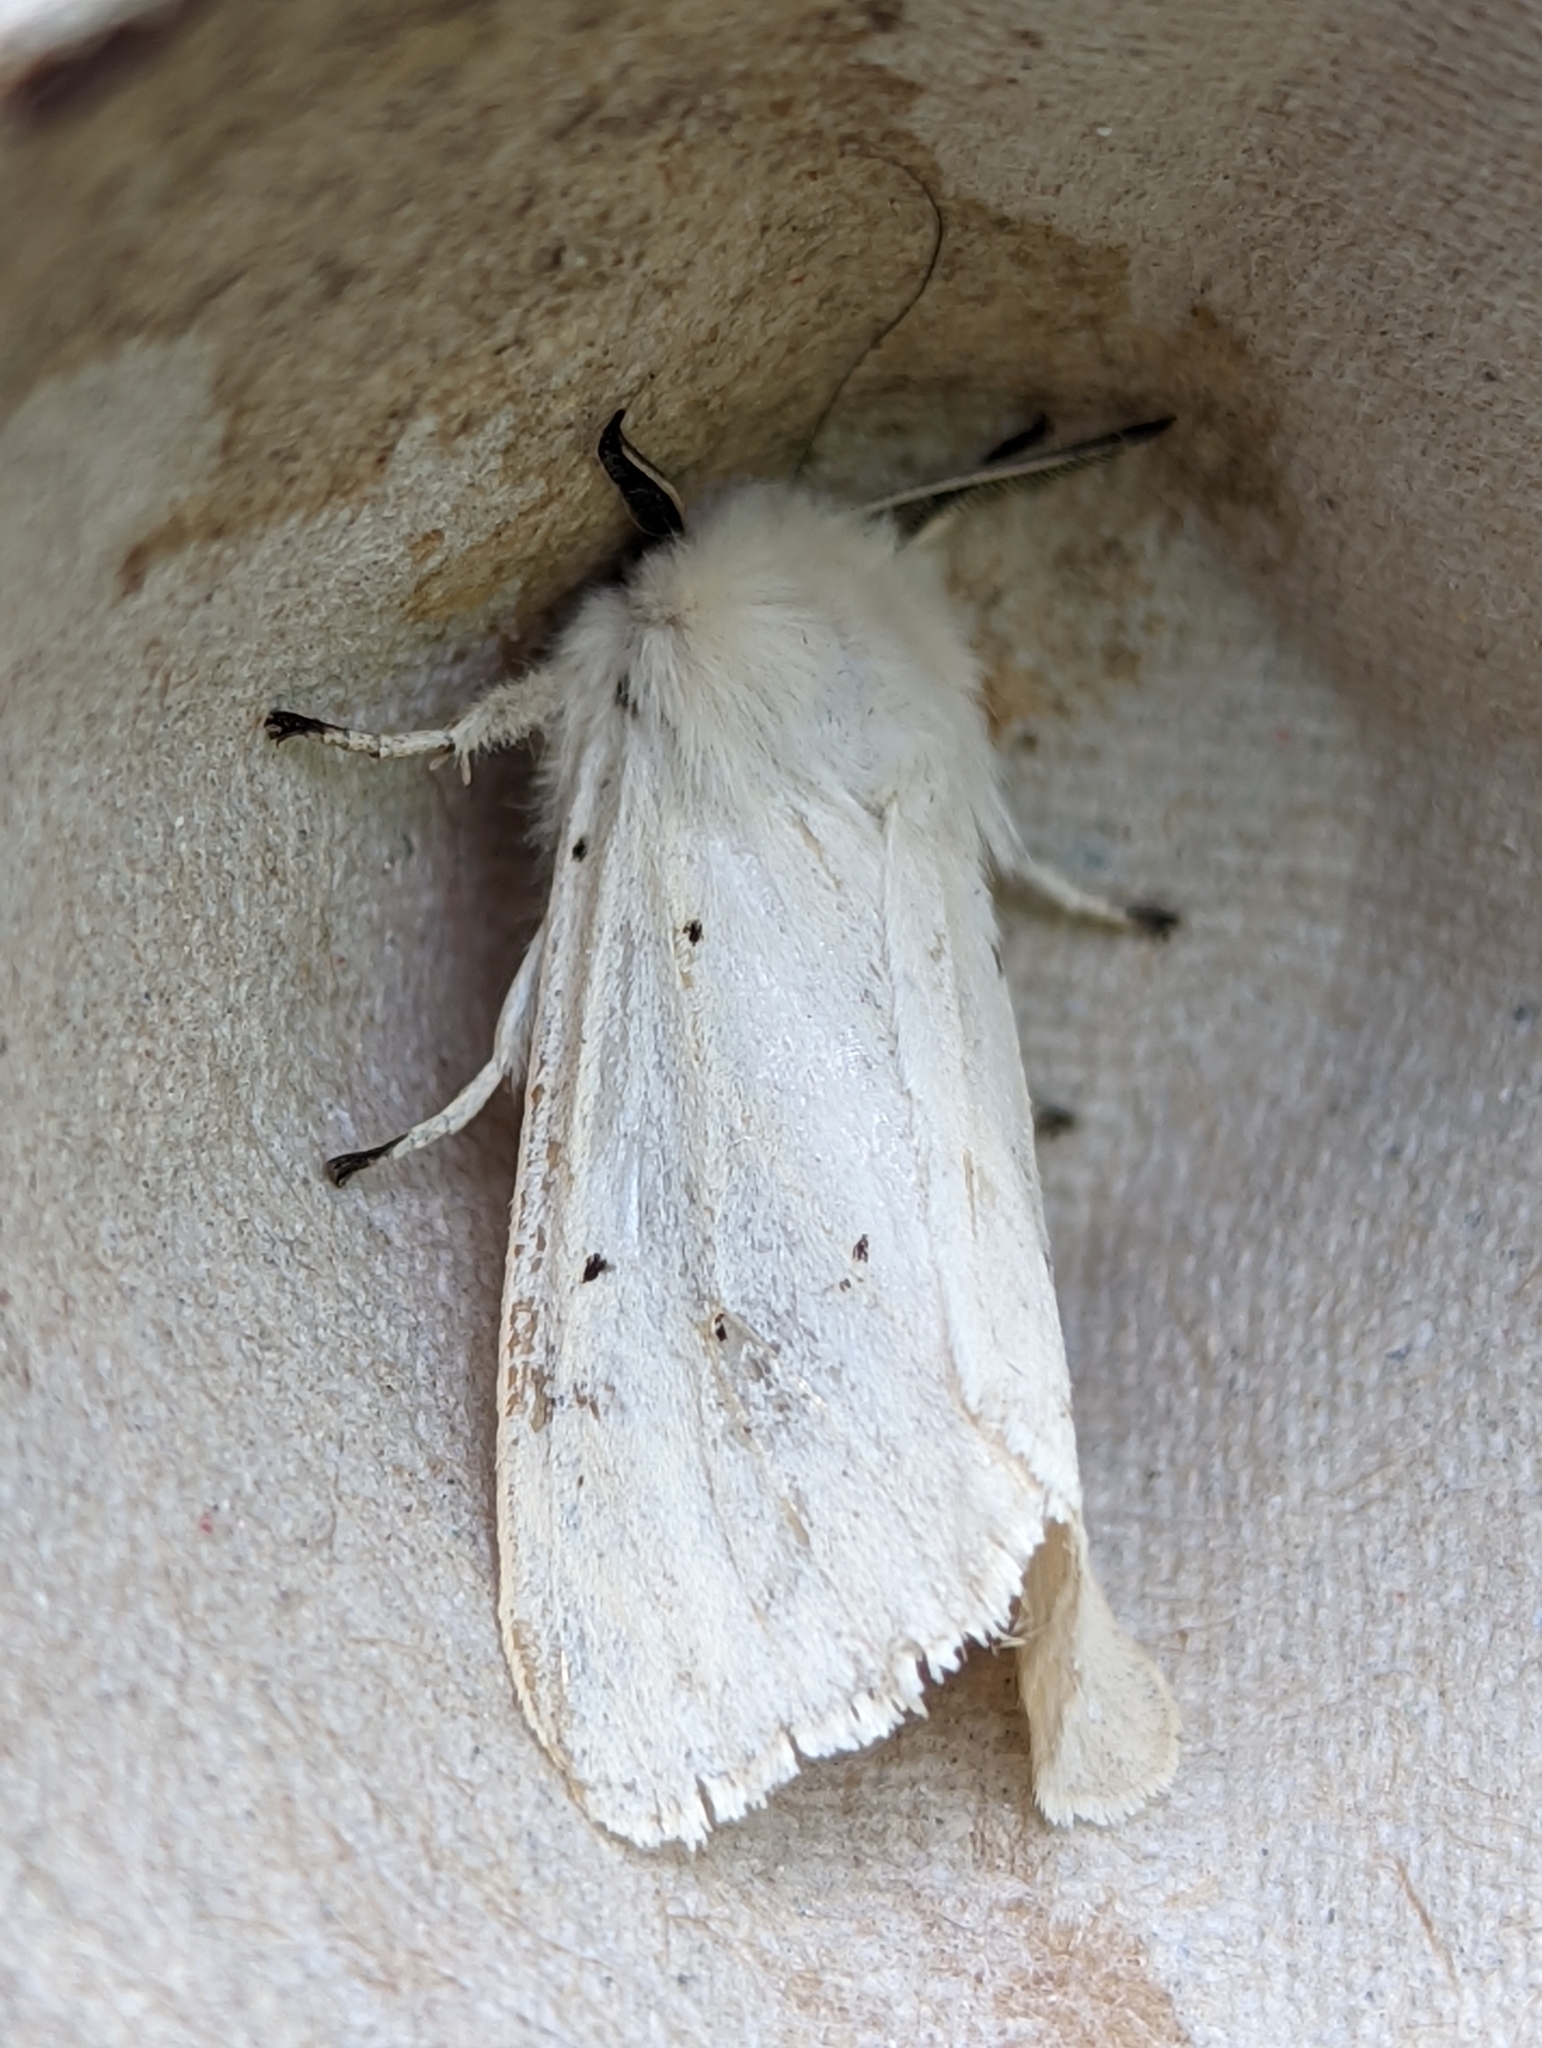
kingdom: Animalia
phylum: Arthropoda
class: Insecta
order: Lepidoptera
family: Erebidae
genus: Spilosoma
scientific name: Spilosoma urticae
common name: Water ermine
